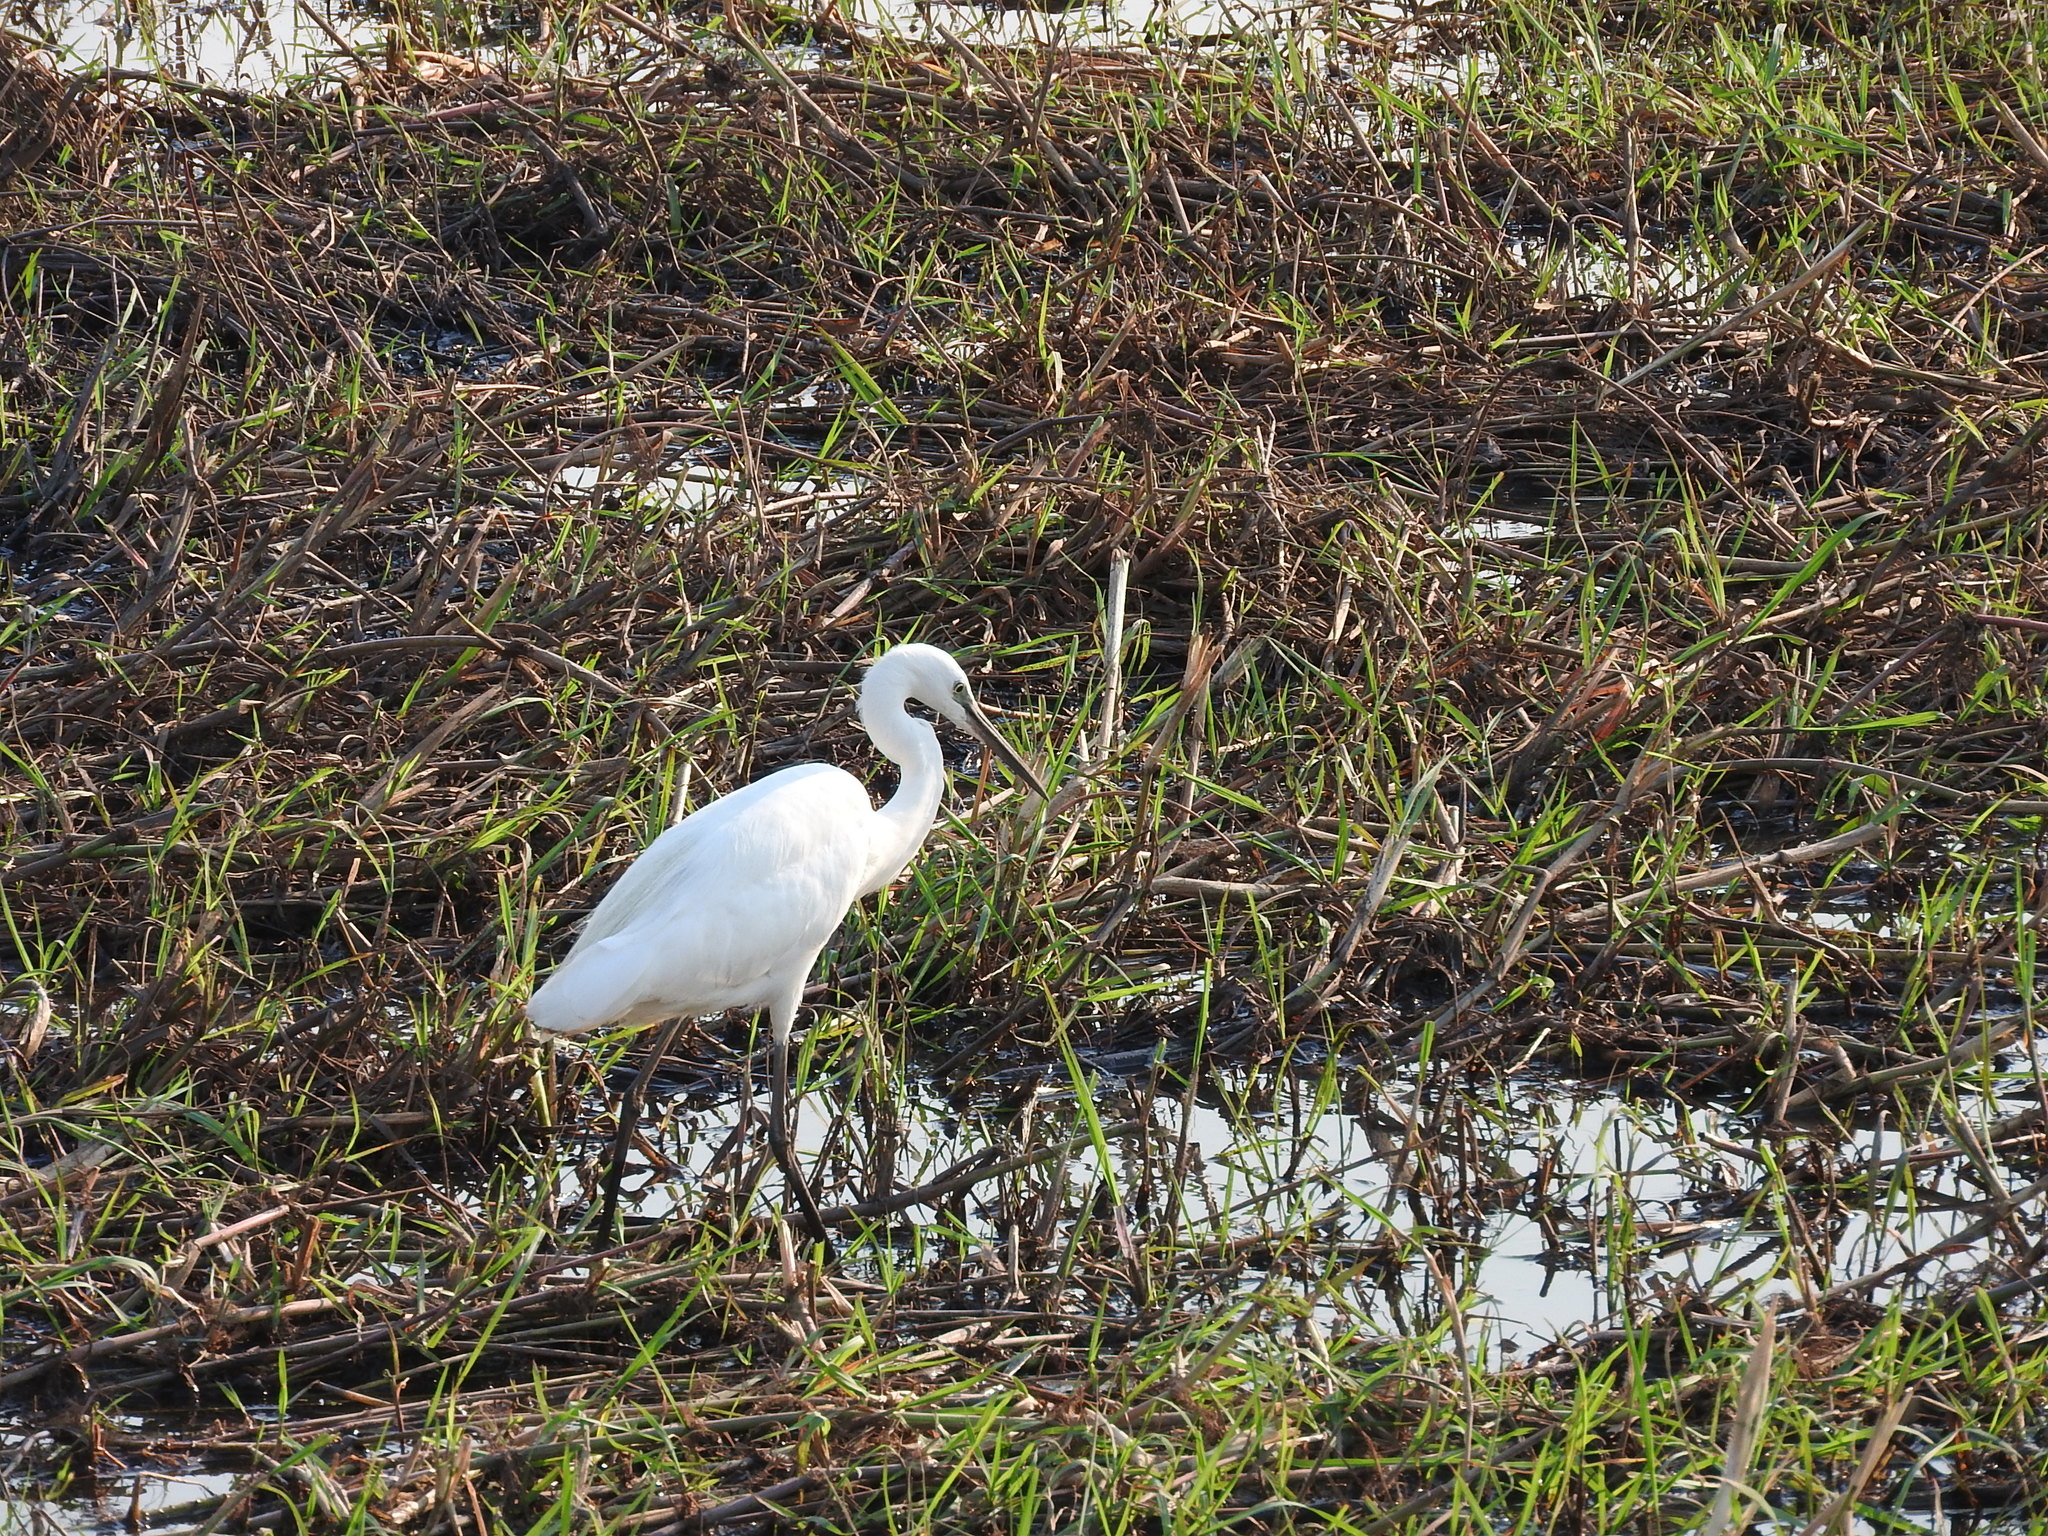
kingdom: Animalia
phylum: Chordata
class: Aves
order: Pelecaniformes
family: Ardeidae
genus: Egretta
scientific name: Egretta garzetta
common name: Little egret
